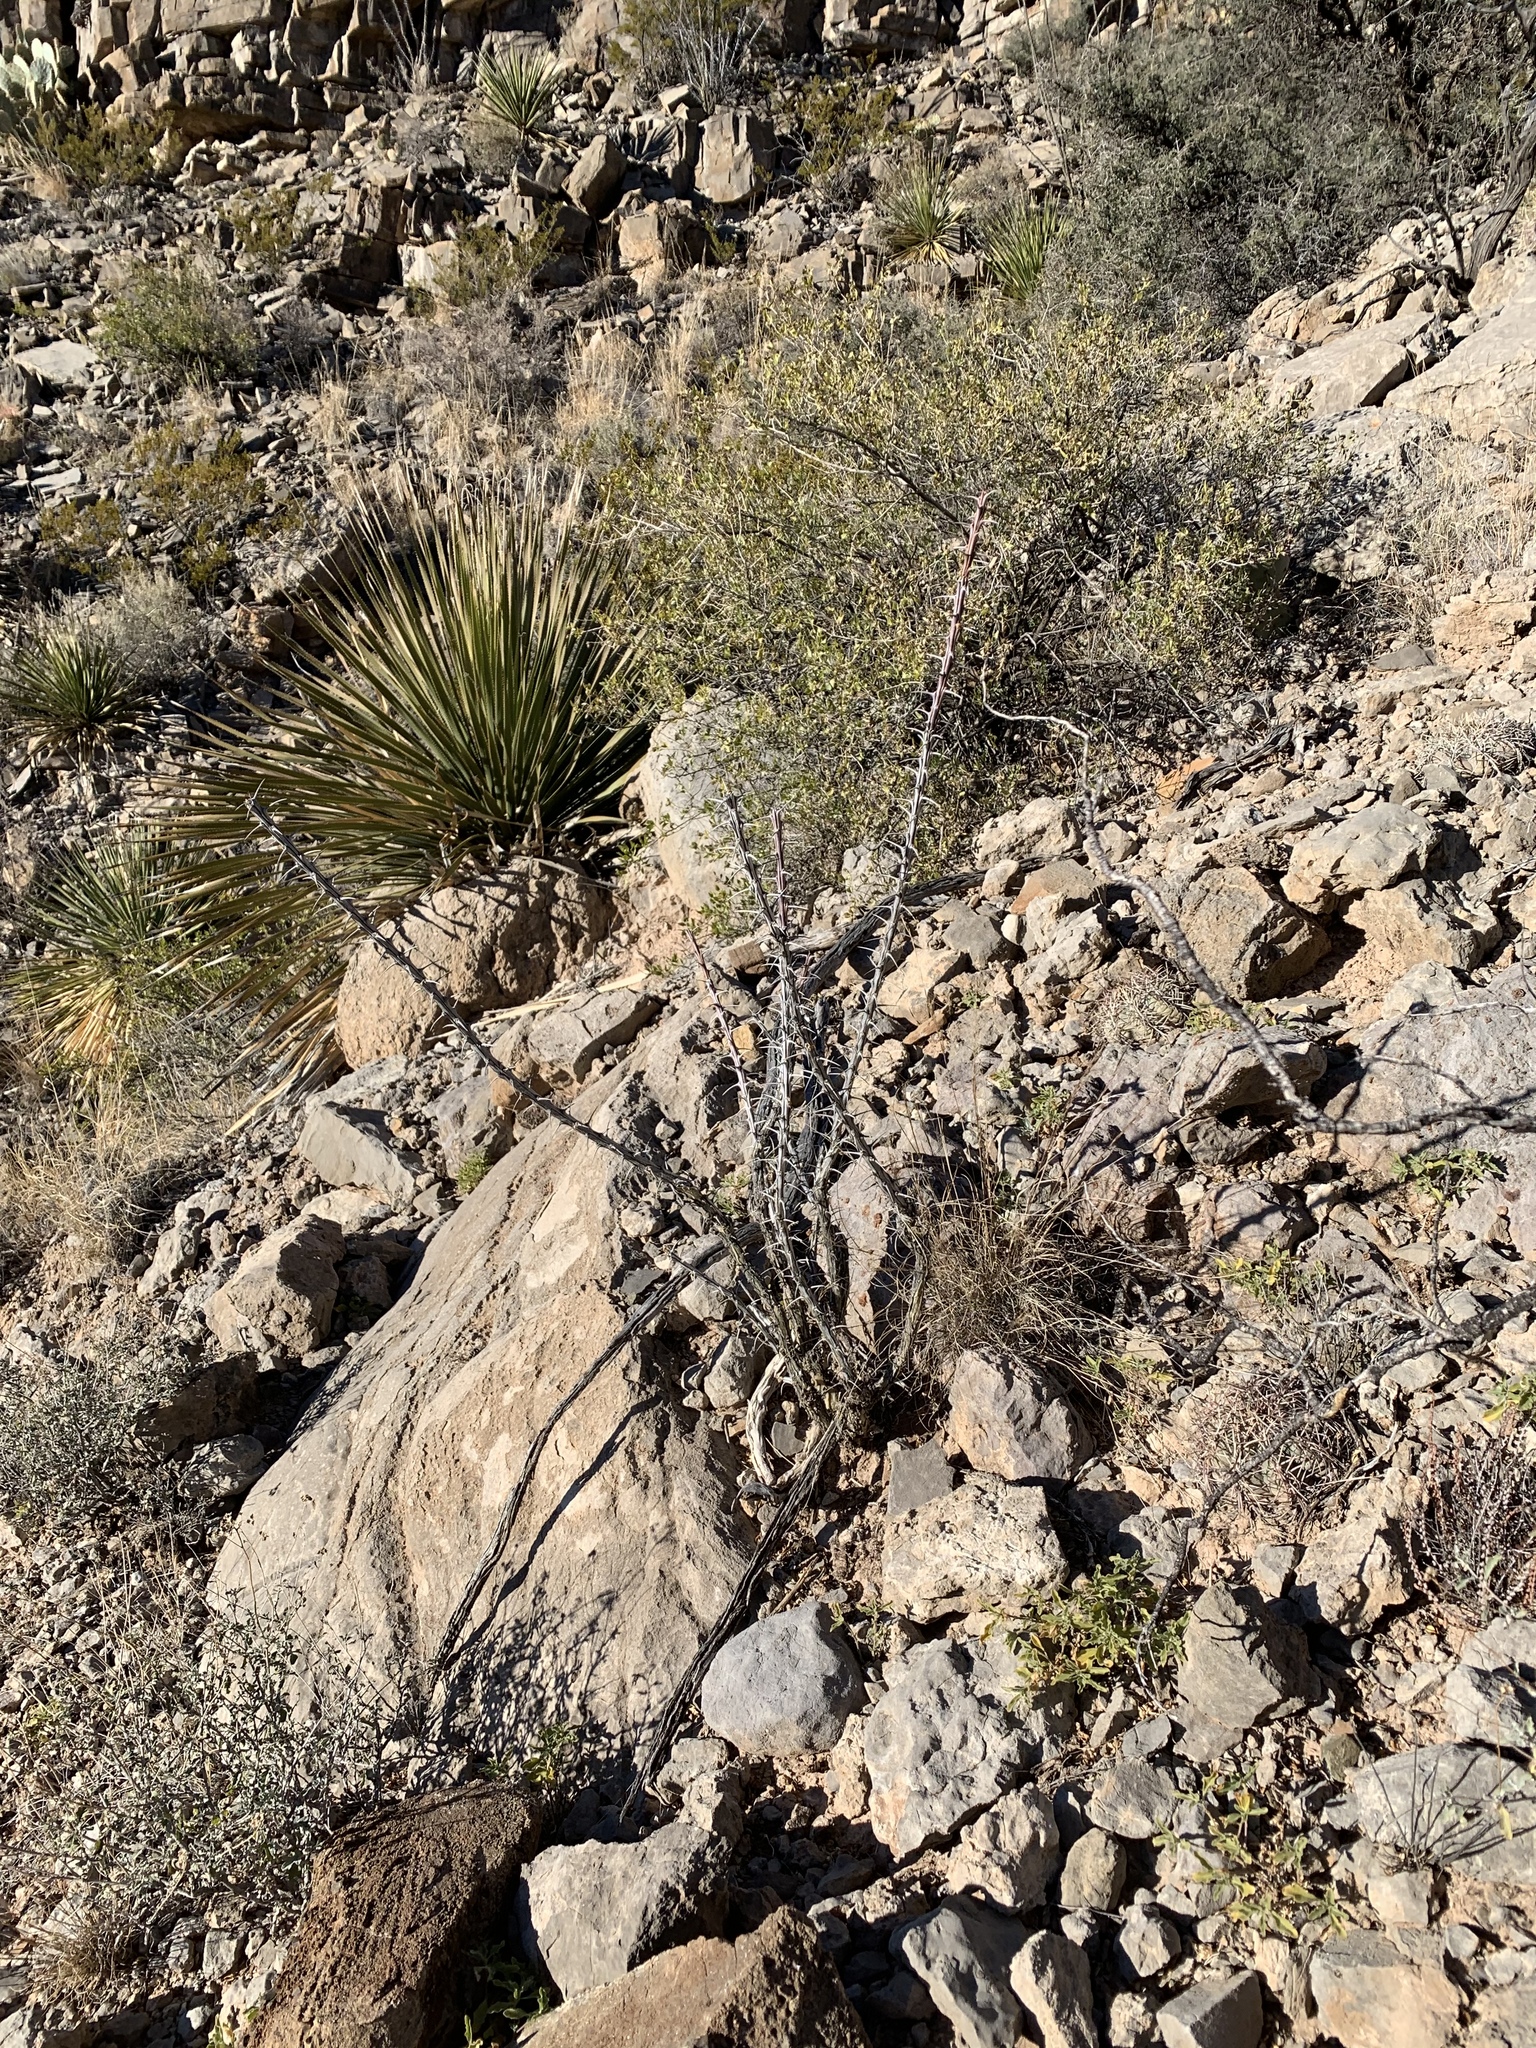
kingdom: Plantae
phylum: Tracheophyta
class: Magnoliopsida
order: Ericales
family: Fouquieriaceae
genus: Fouquieria
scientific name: Fouquieria splendens
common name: Vine-cactus
